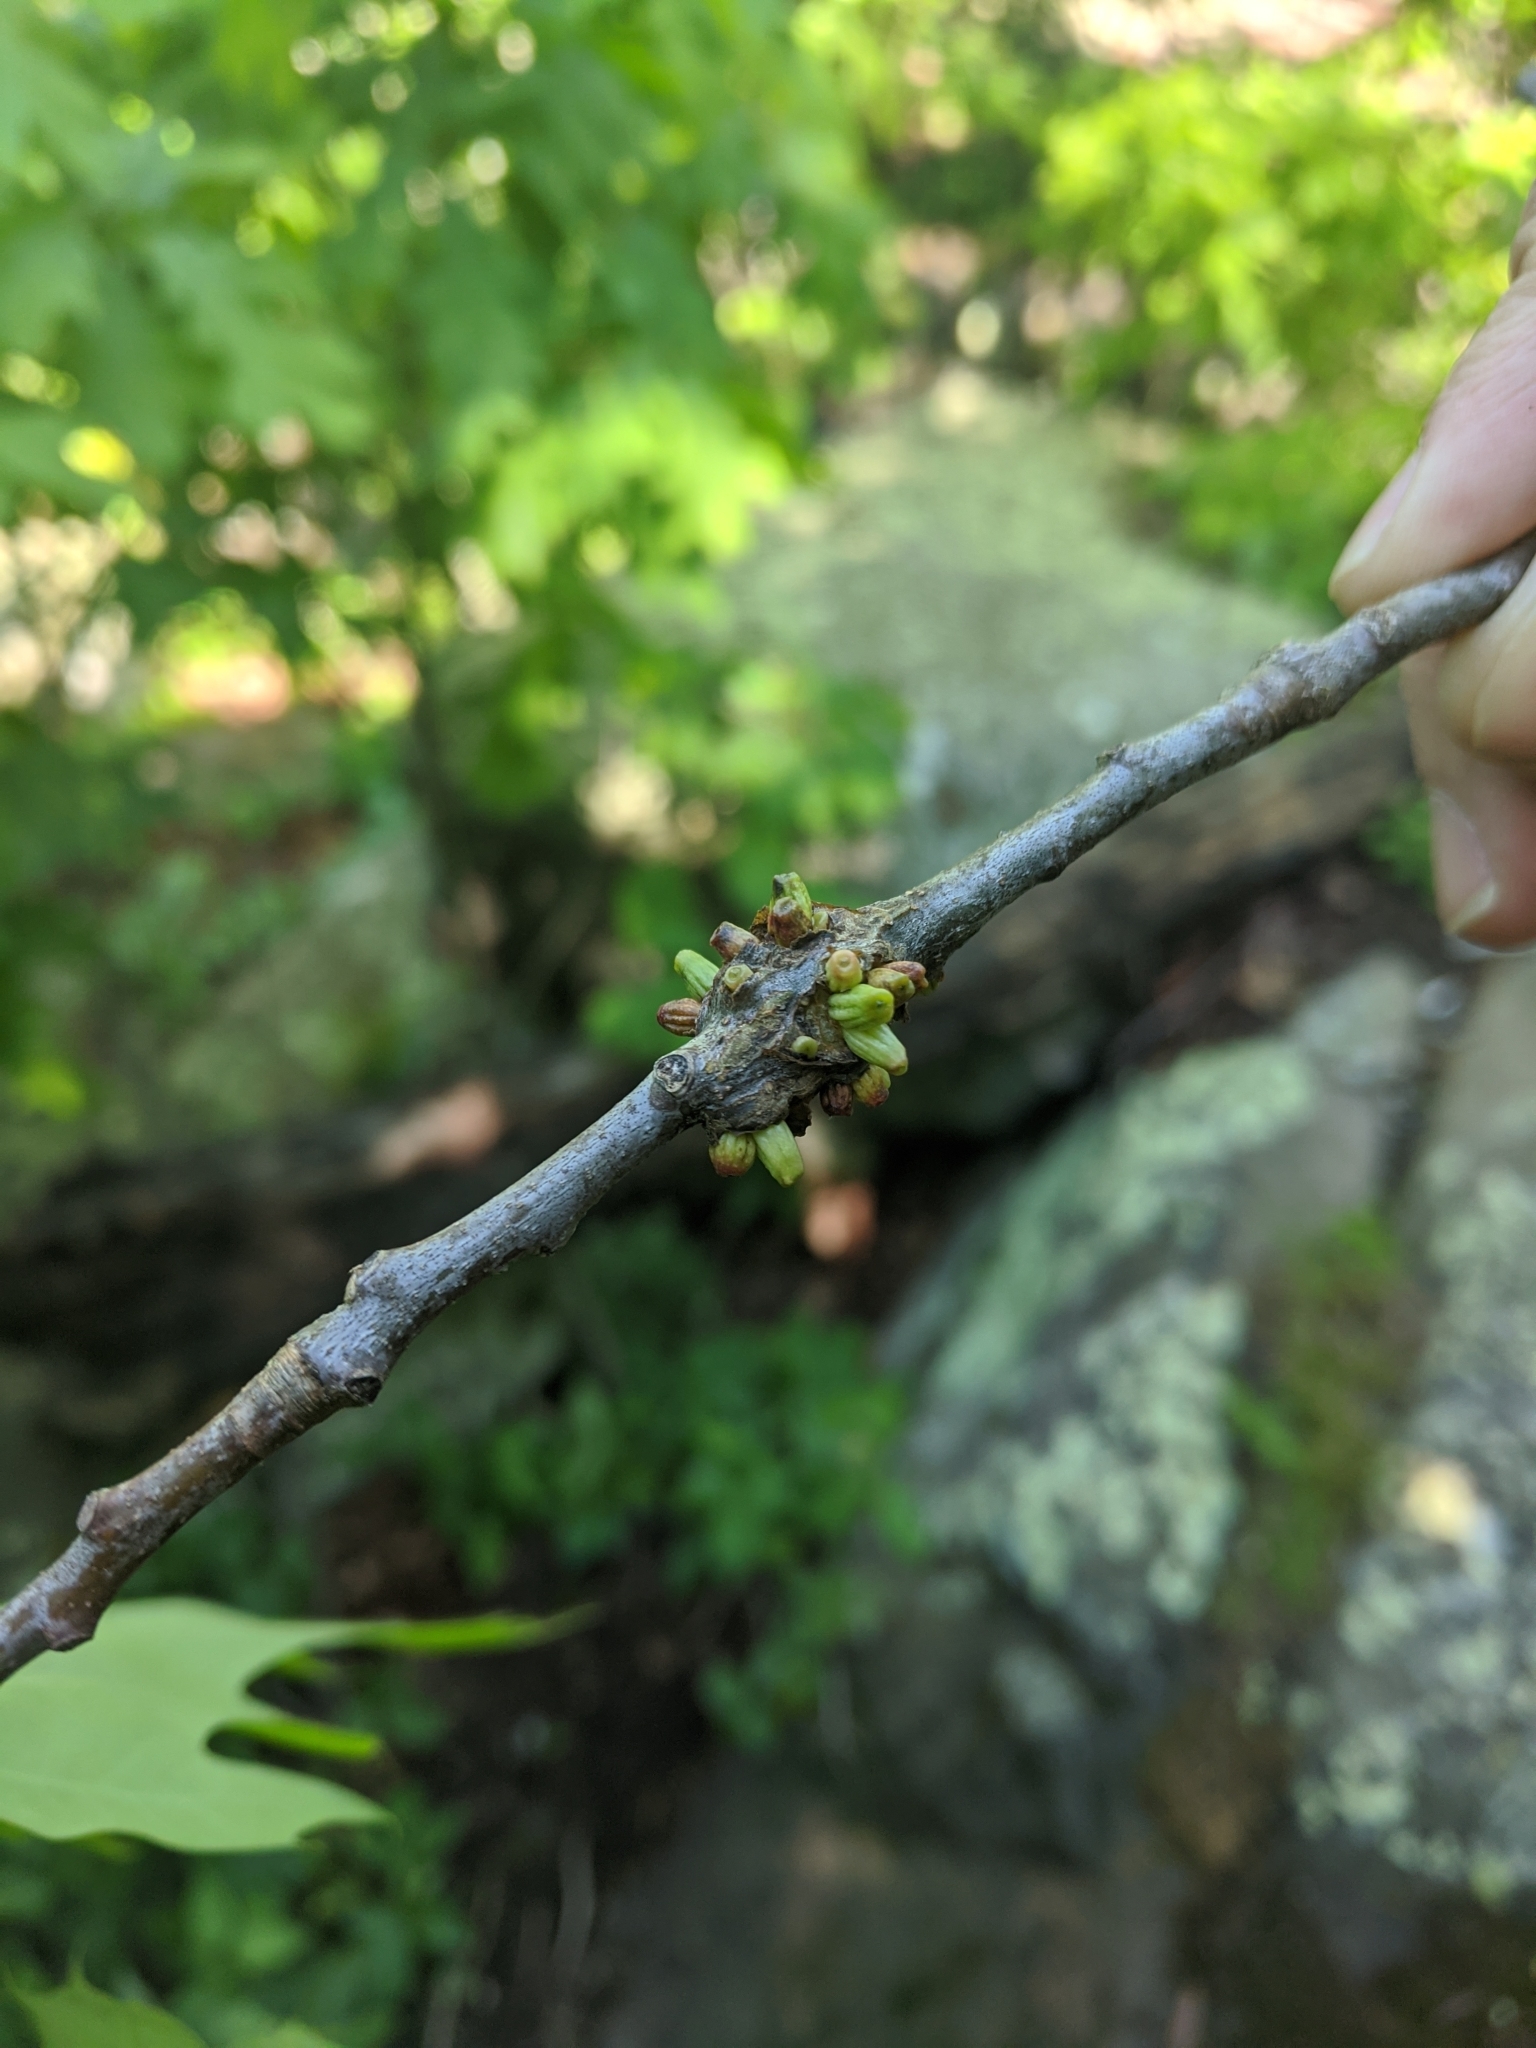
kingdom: Animalia
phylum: Arthropoda
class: Insecta
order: Hymenoptera
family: Cynipidae
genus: Callirhytis
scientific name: Callirhytis
